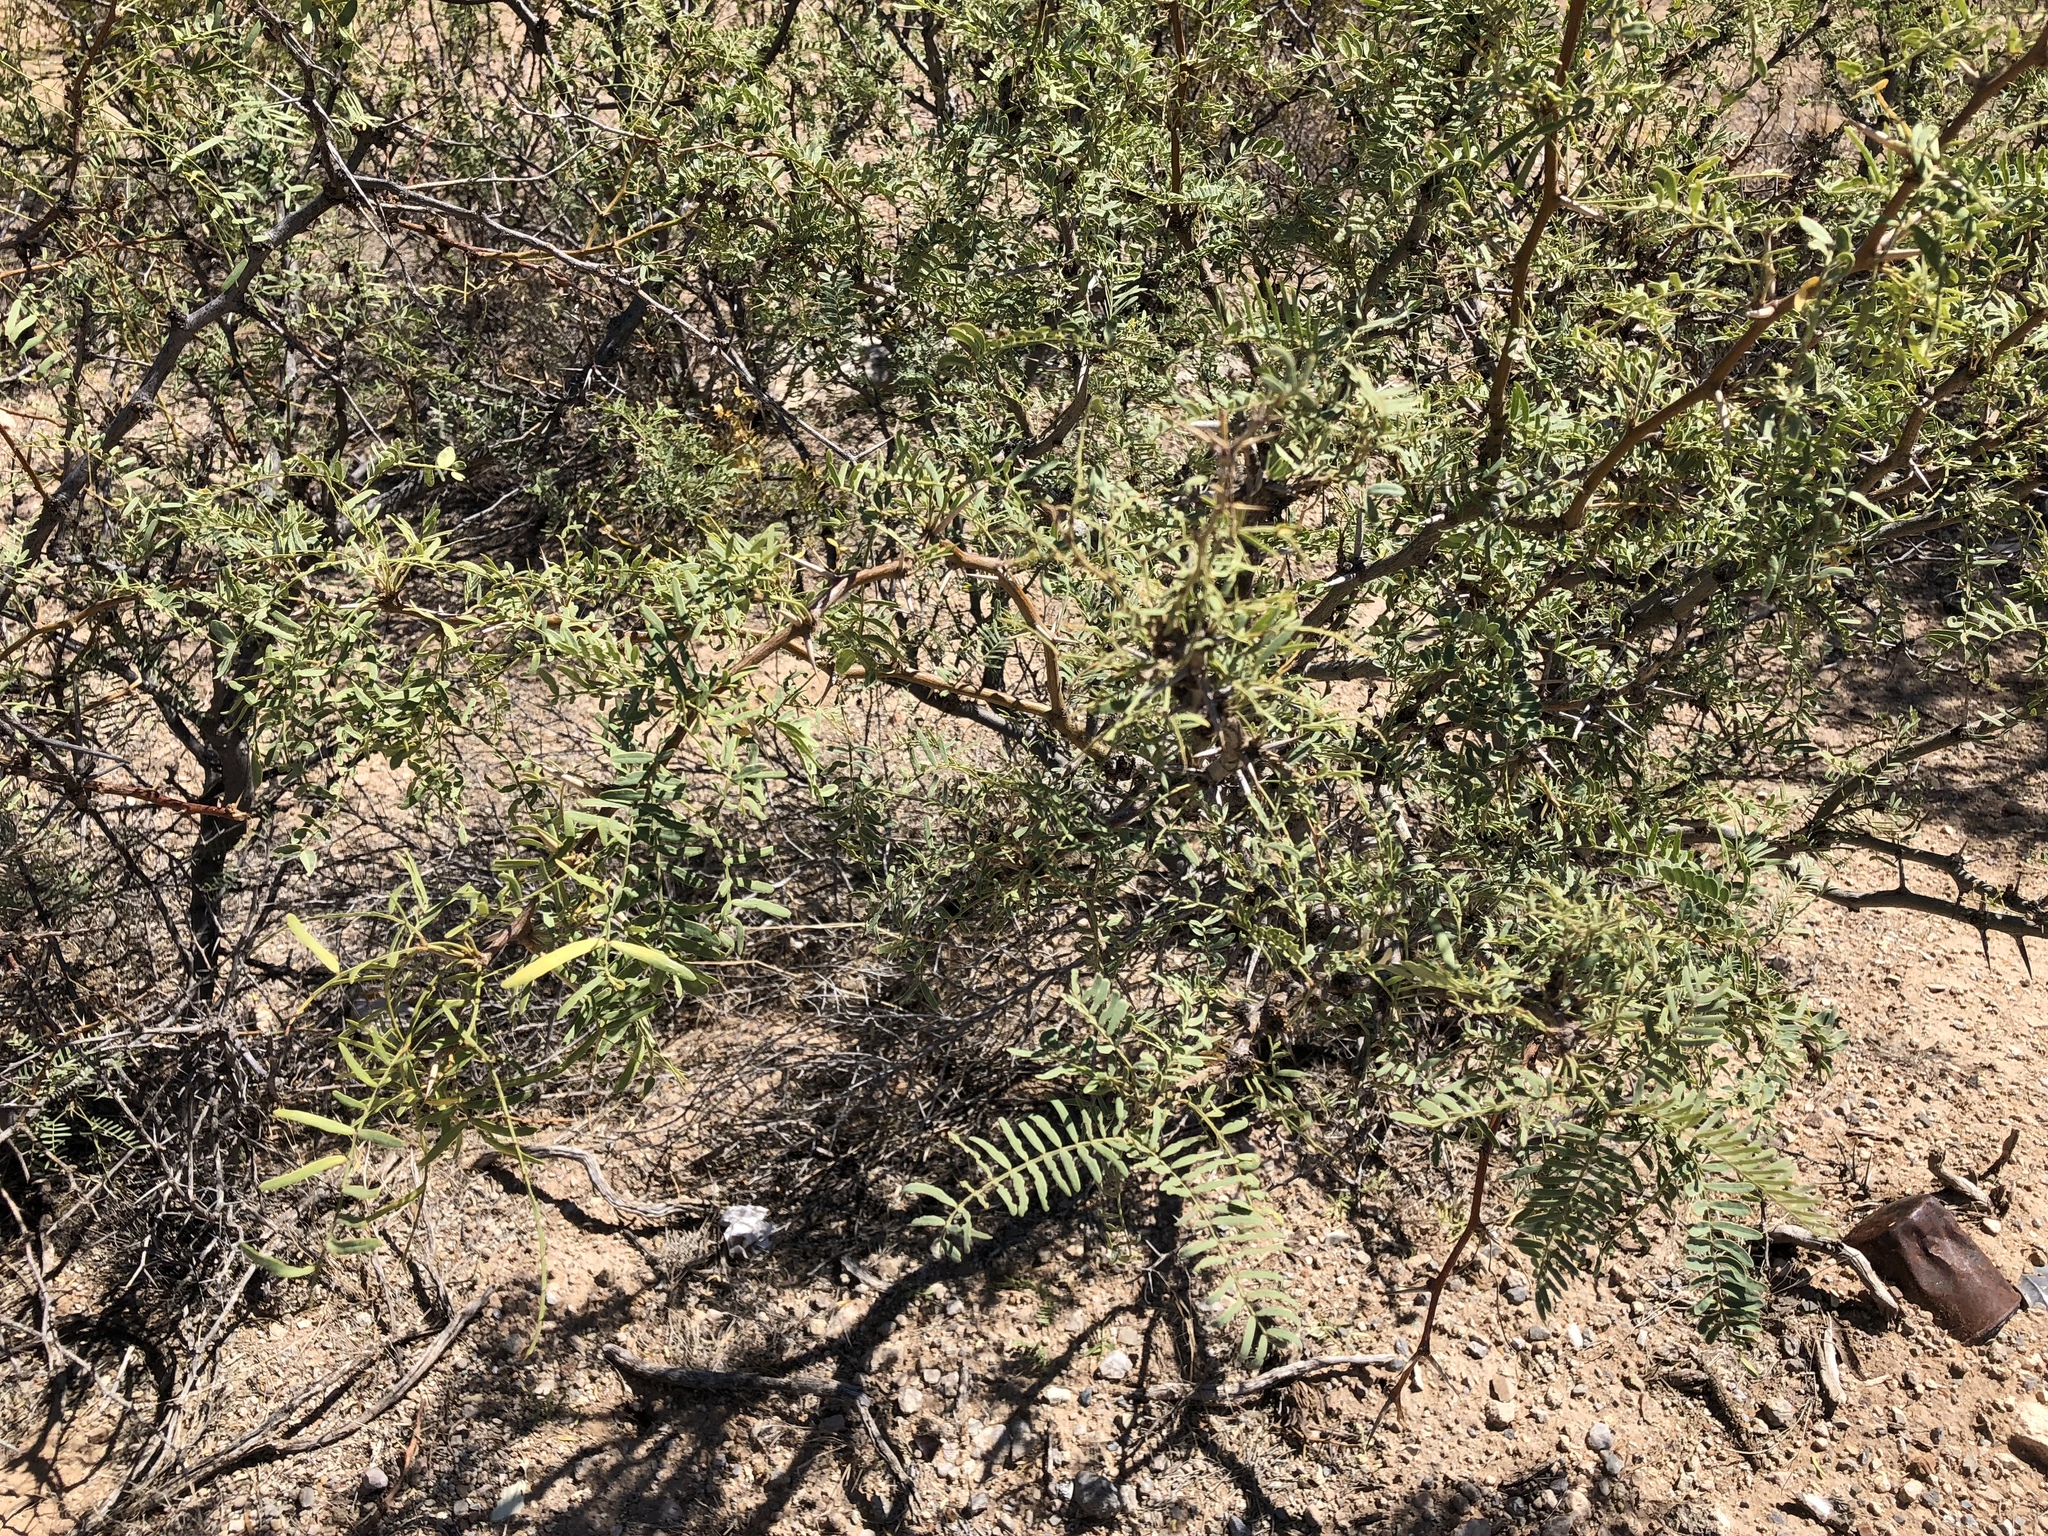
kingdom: Plantae
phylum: Tracheophyta
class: Magnoliopsida
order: Fabales
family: Fabaceae
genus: Prosopis
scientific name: Prosopis glandulosa
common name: Honey mesquite
